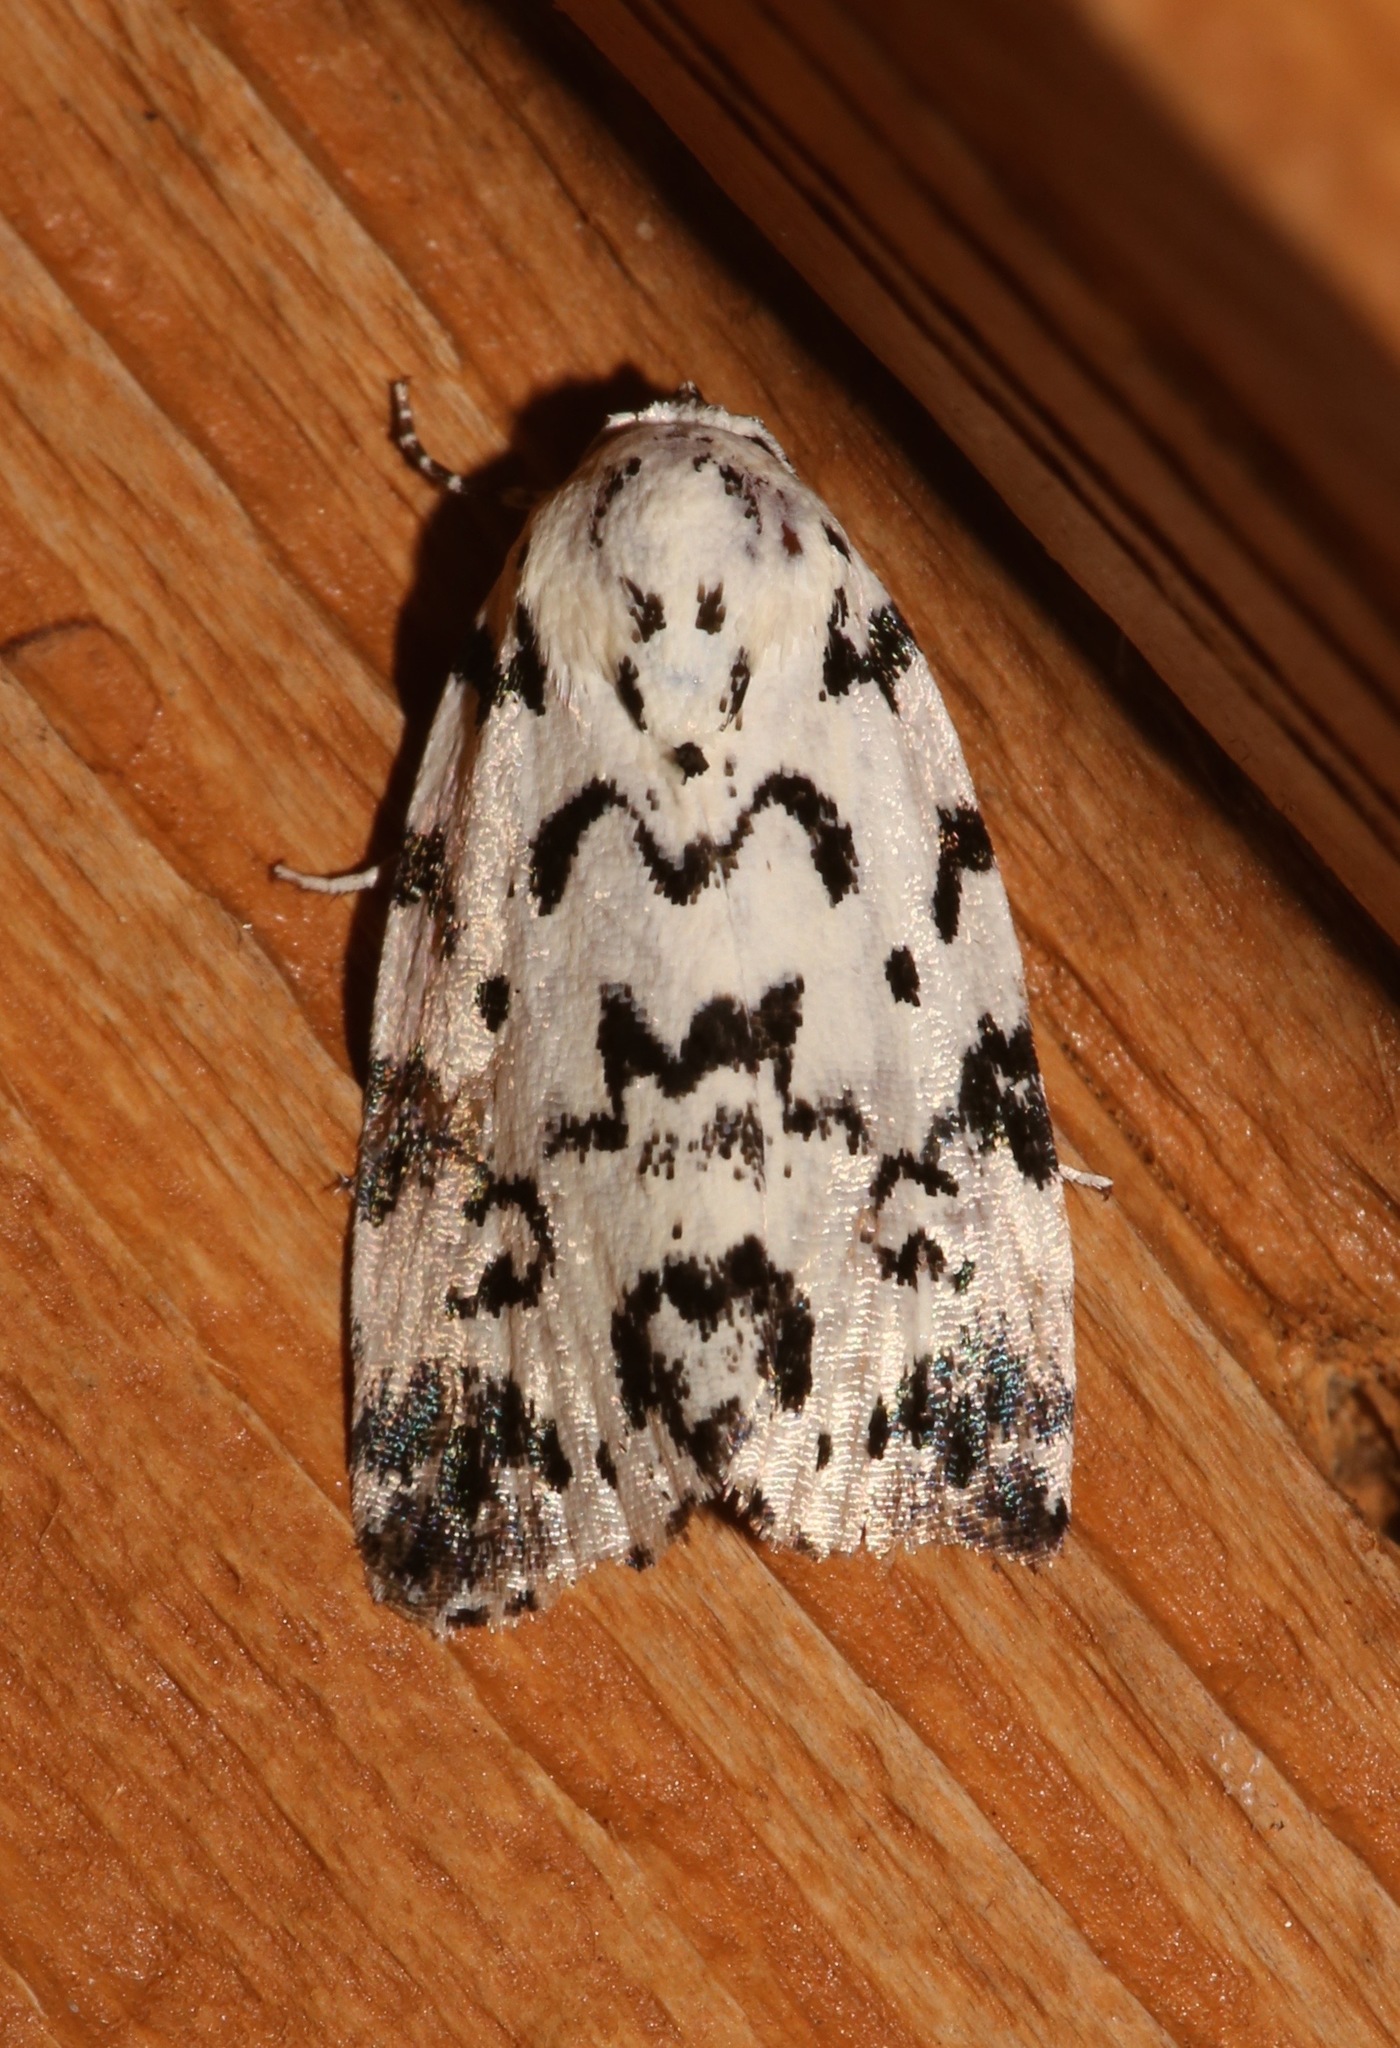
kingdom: Animalia
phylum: Arthropoda
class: Insecta
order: Lepidoptera
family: Noctuidae
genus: Polygrammate
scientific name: Polygrammate hebraeicum
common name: Hebrew moth
